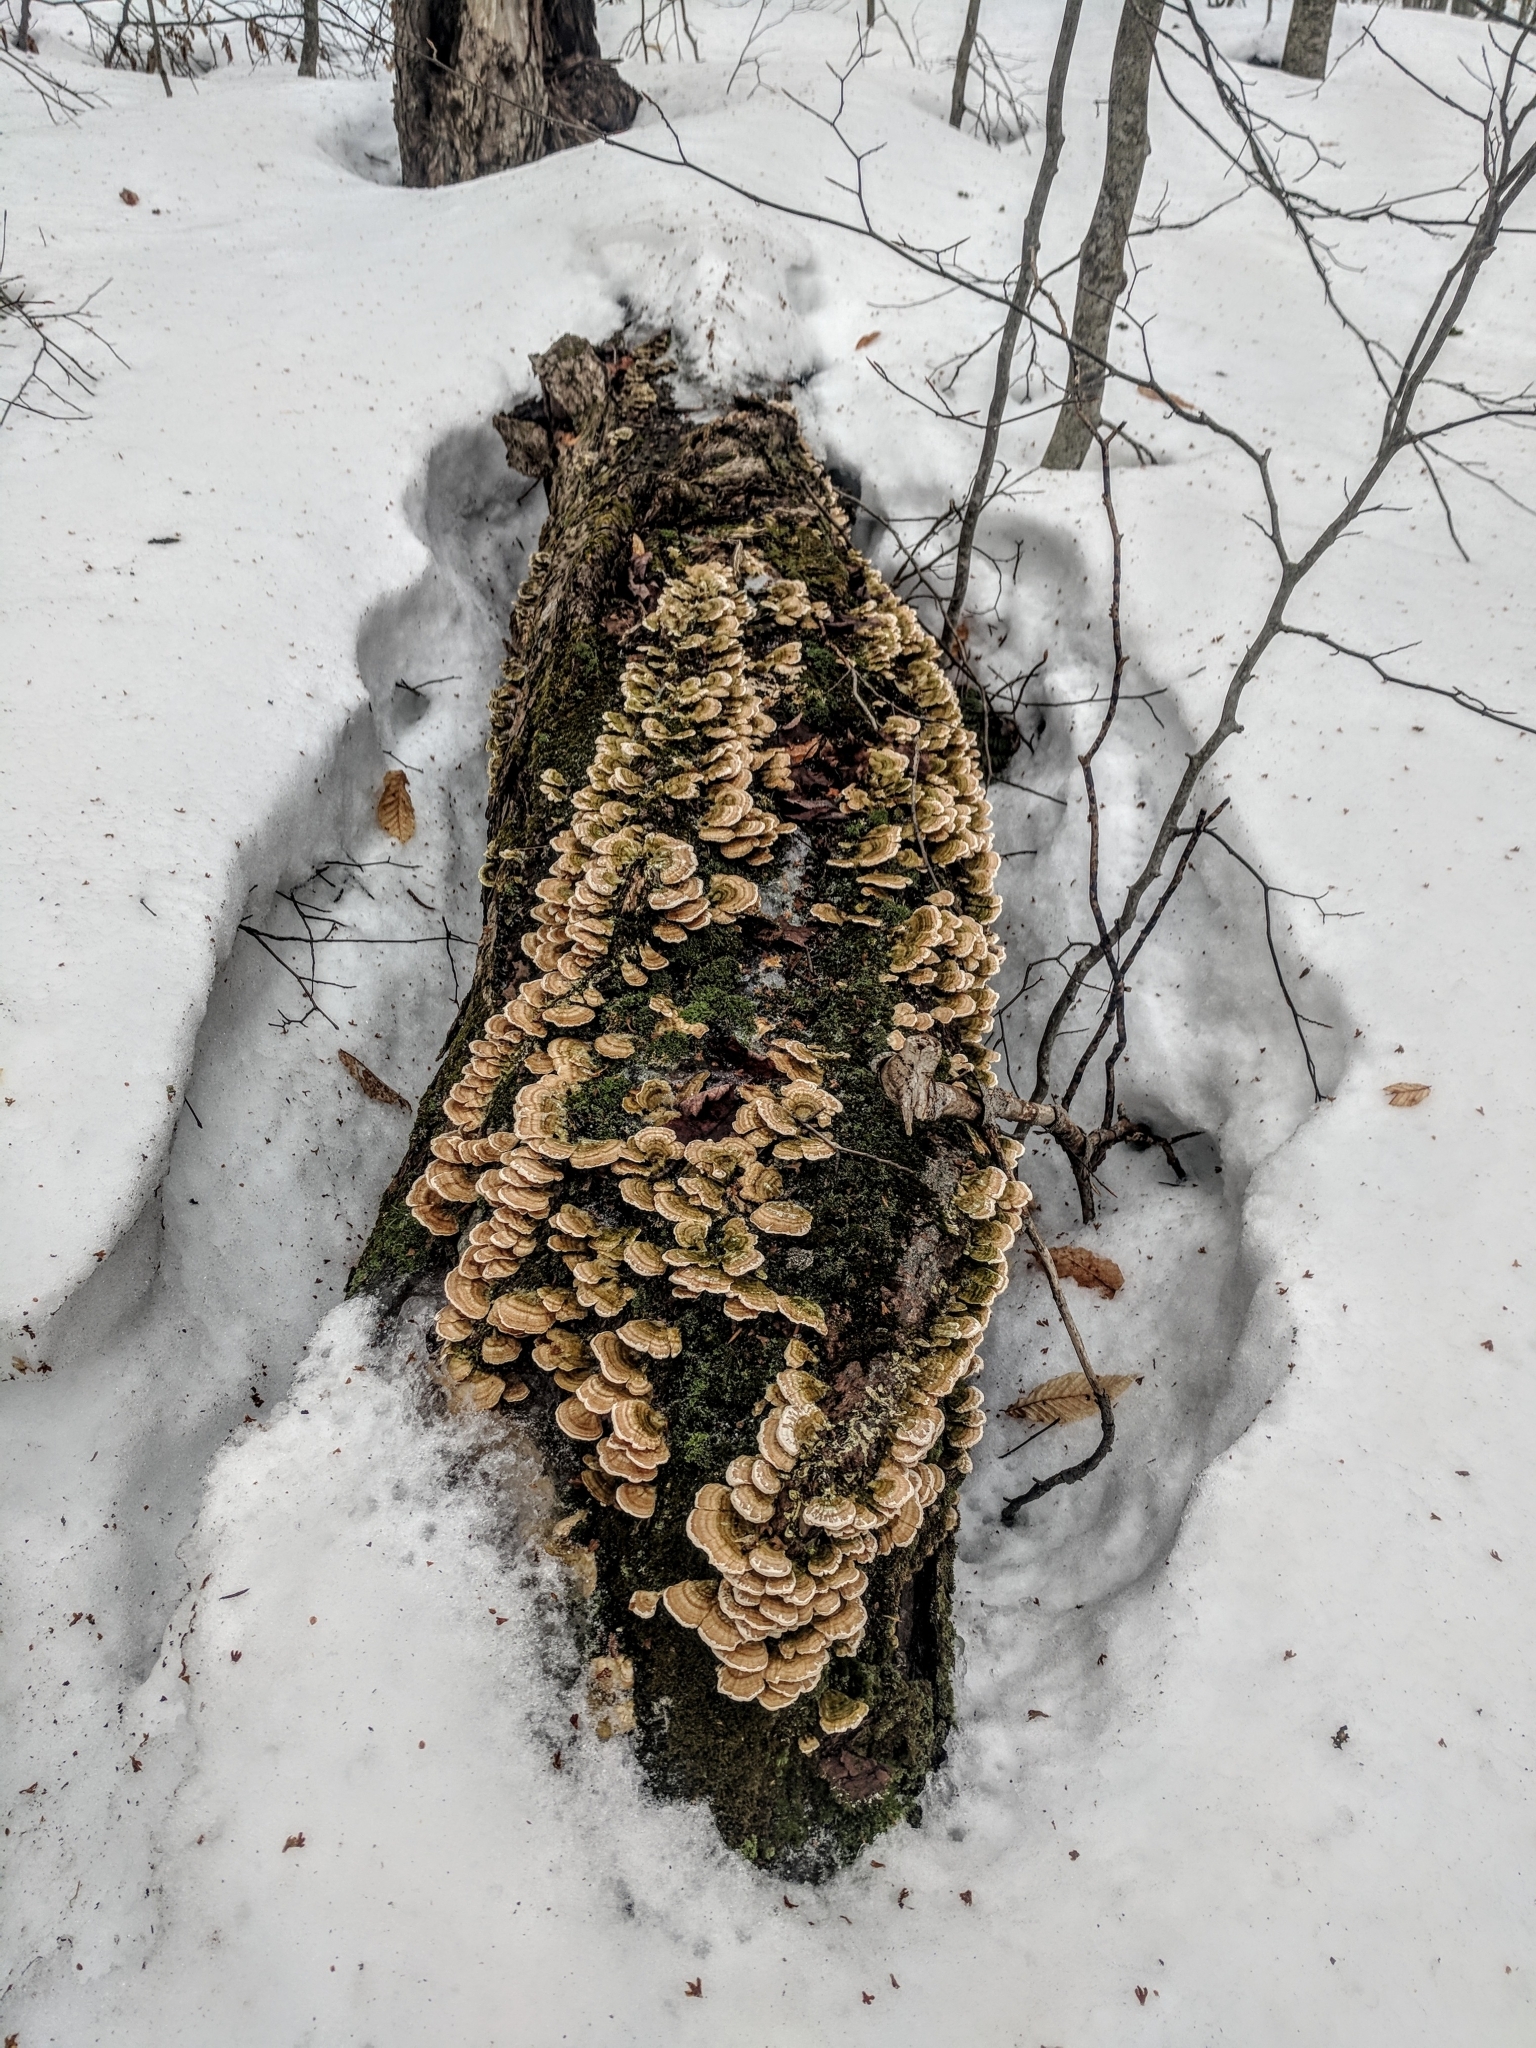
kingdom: Fungi
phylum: Basidiomycota
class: Agaricomycetes
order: Polyporales
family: Polyporaceae
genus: Trametes
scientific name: Trametes versicolor
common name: Turkeytail
